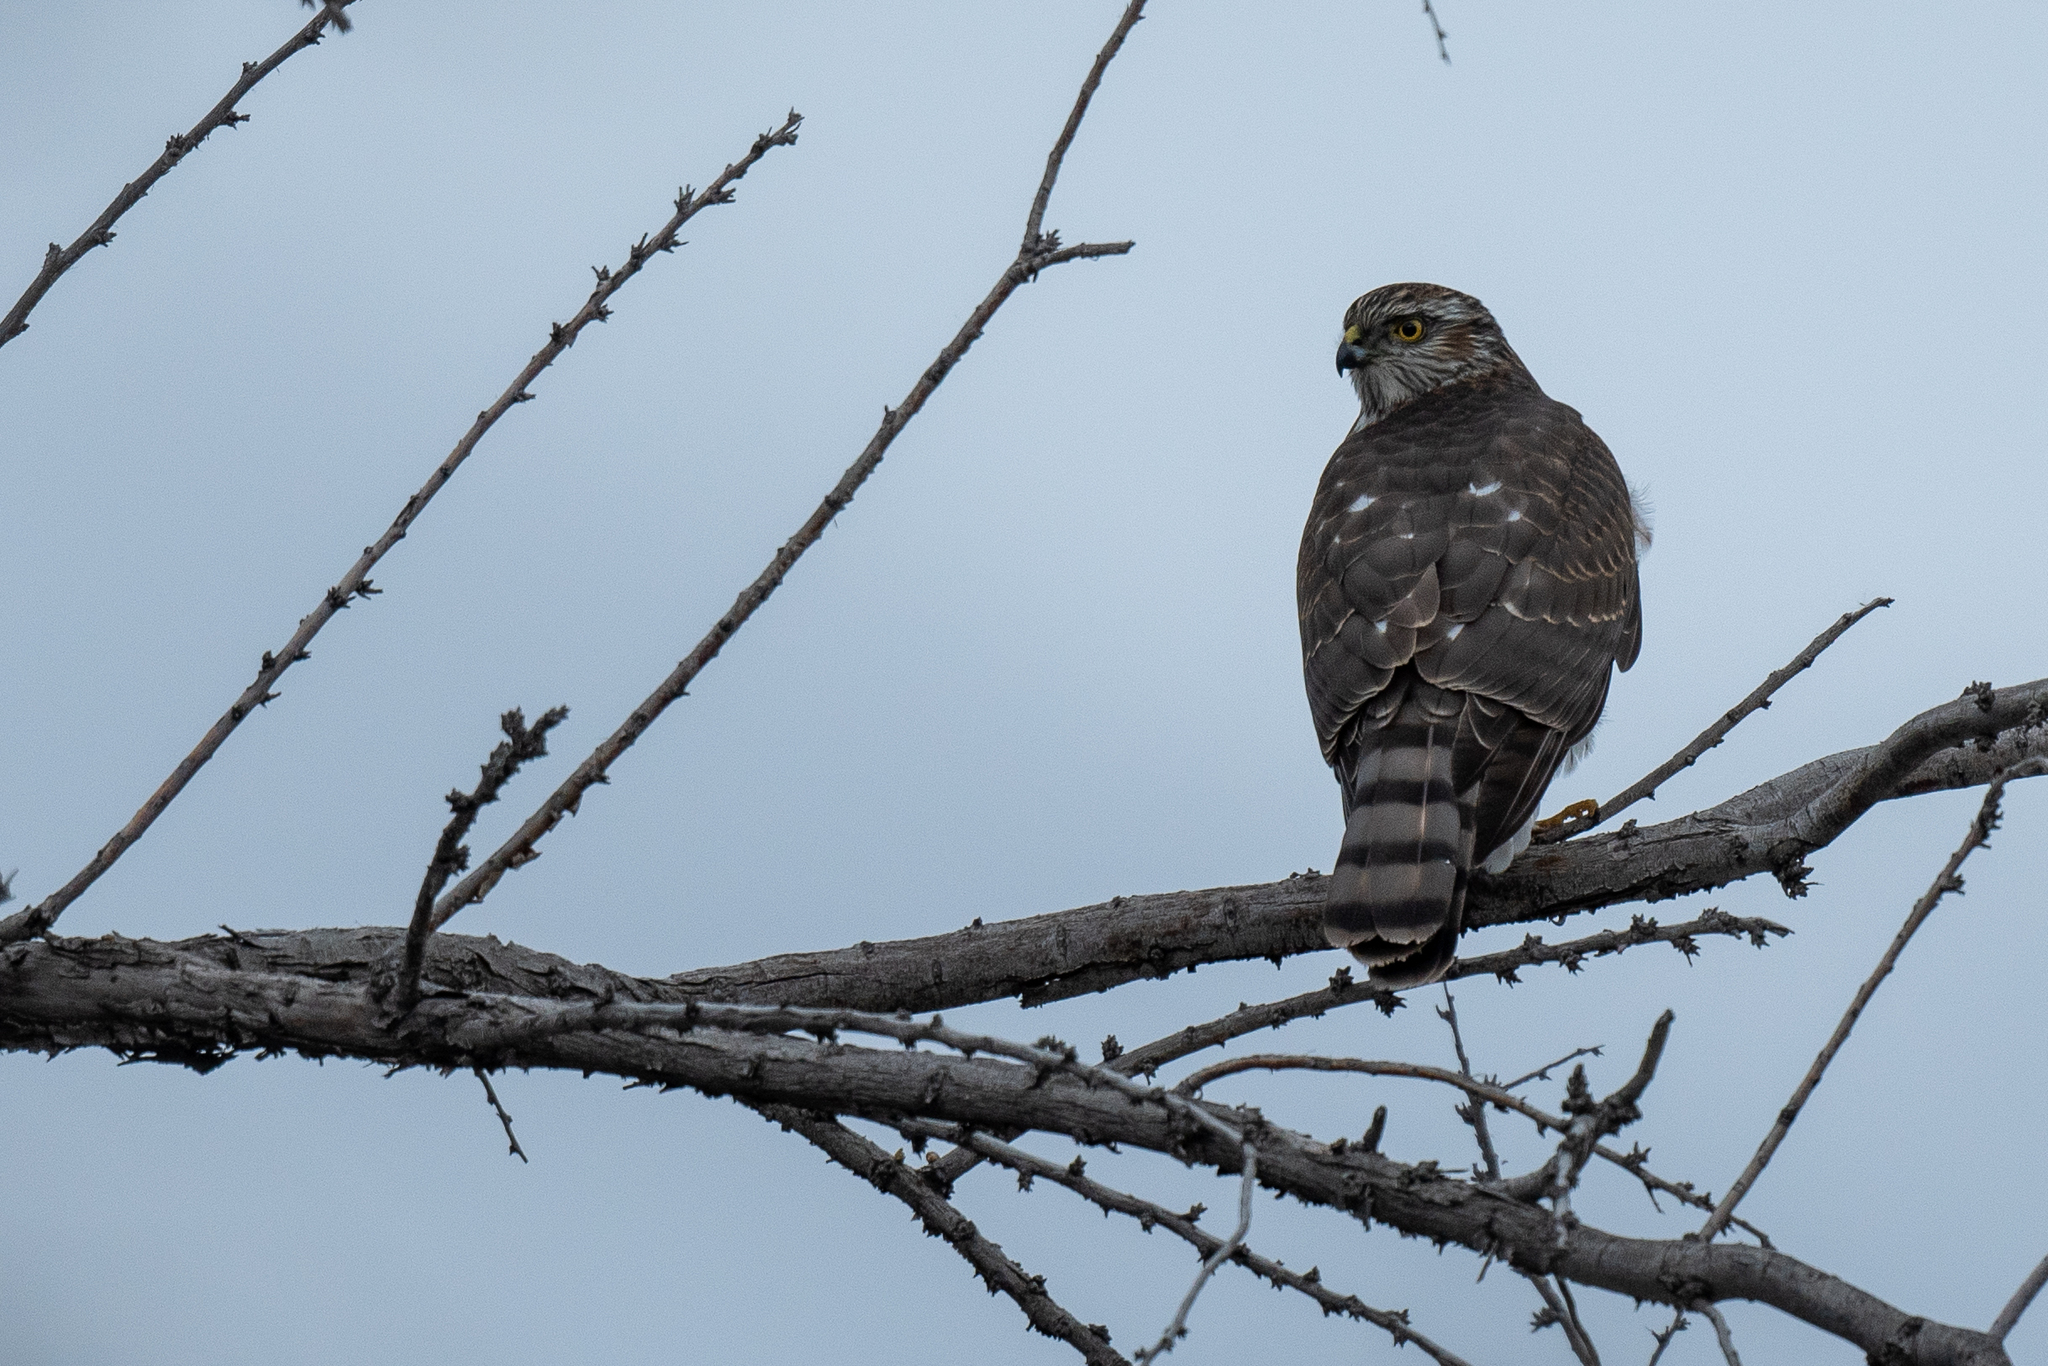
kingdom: Animalia
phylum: Chordata
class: Aves
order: Accipitriformes
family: Accipitridae
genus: Accipiter
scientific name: Accipiter striatus
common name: Sharp-shinned hawk
